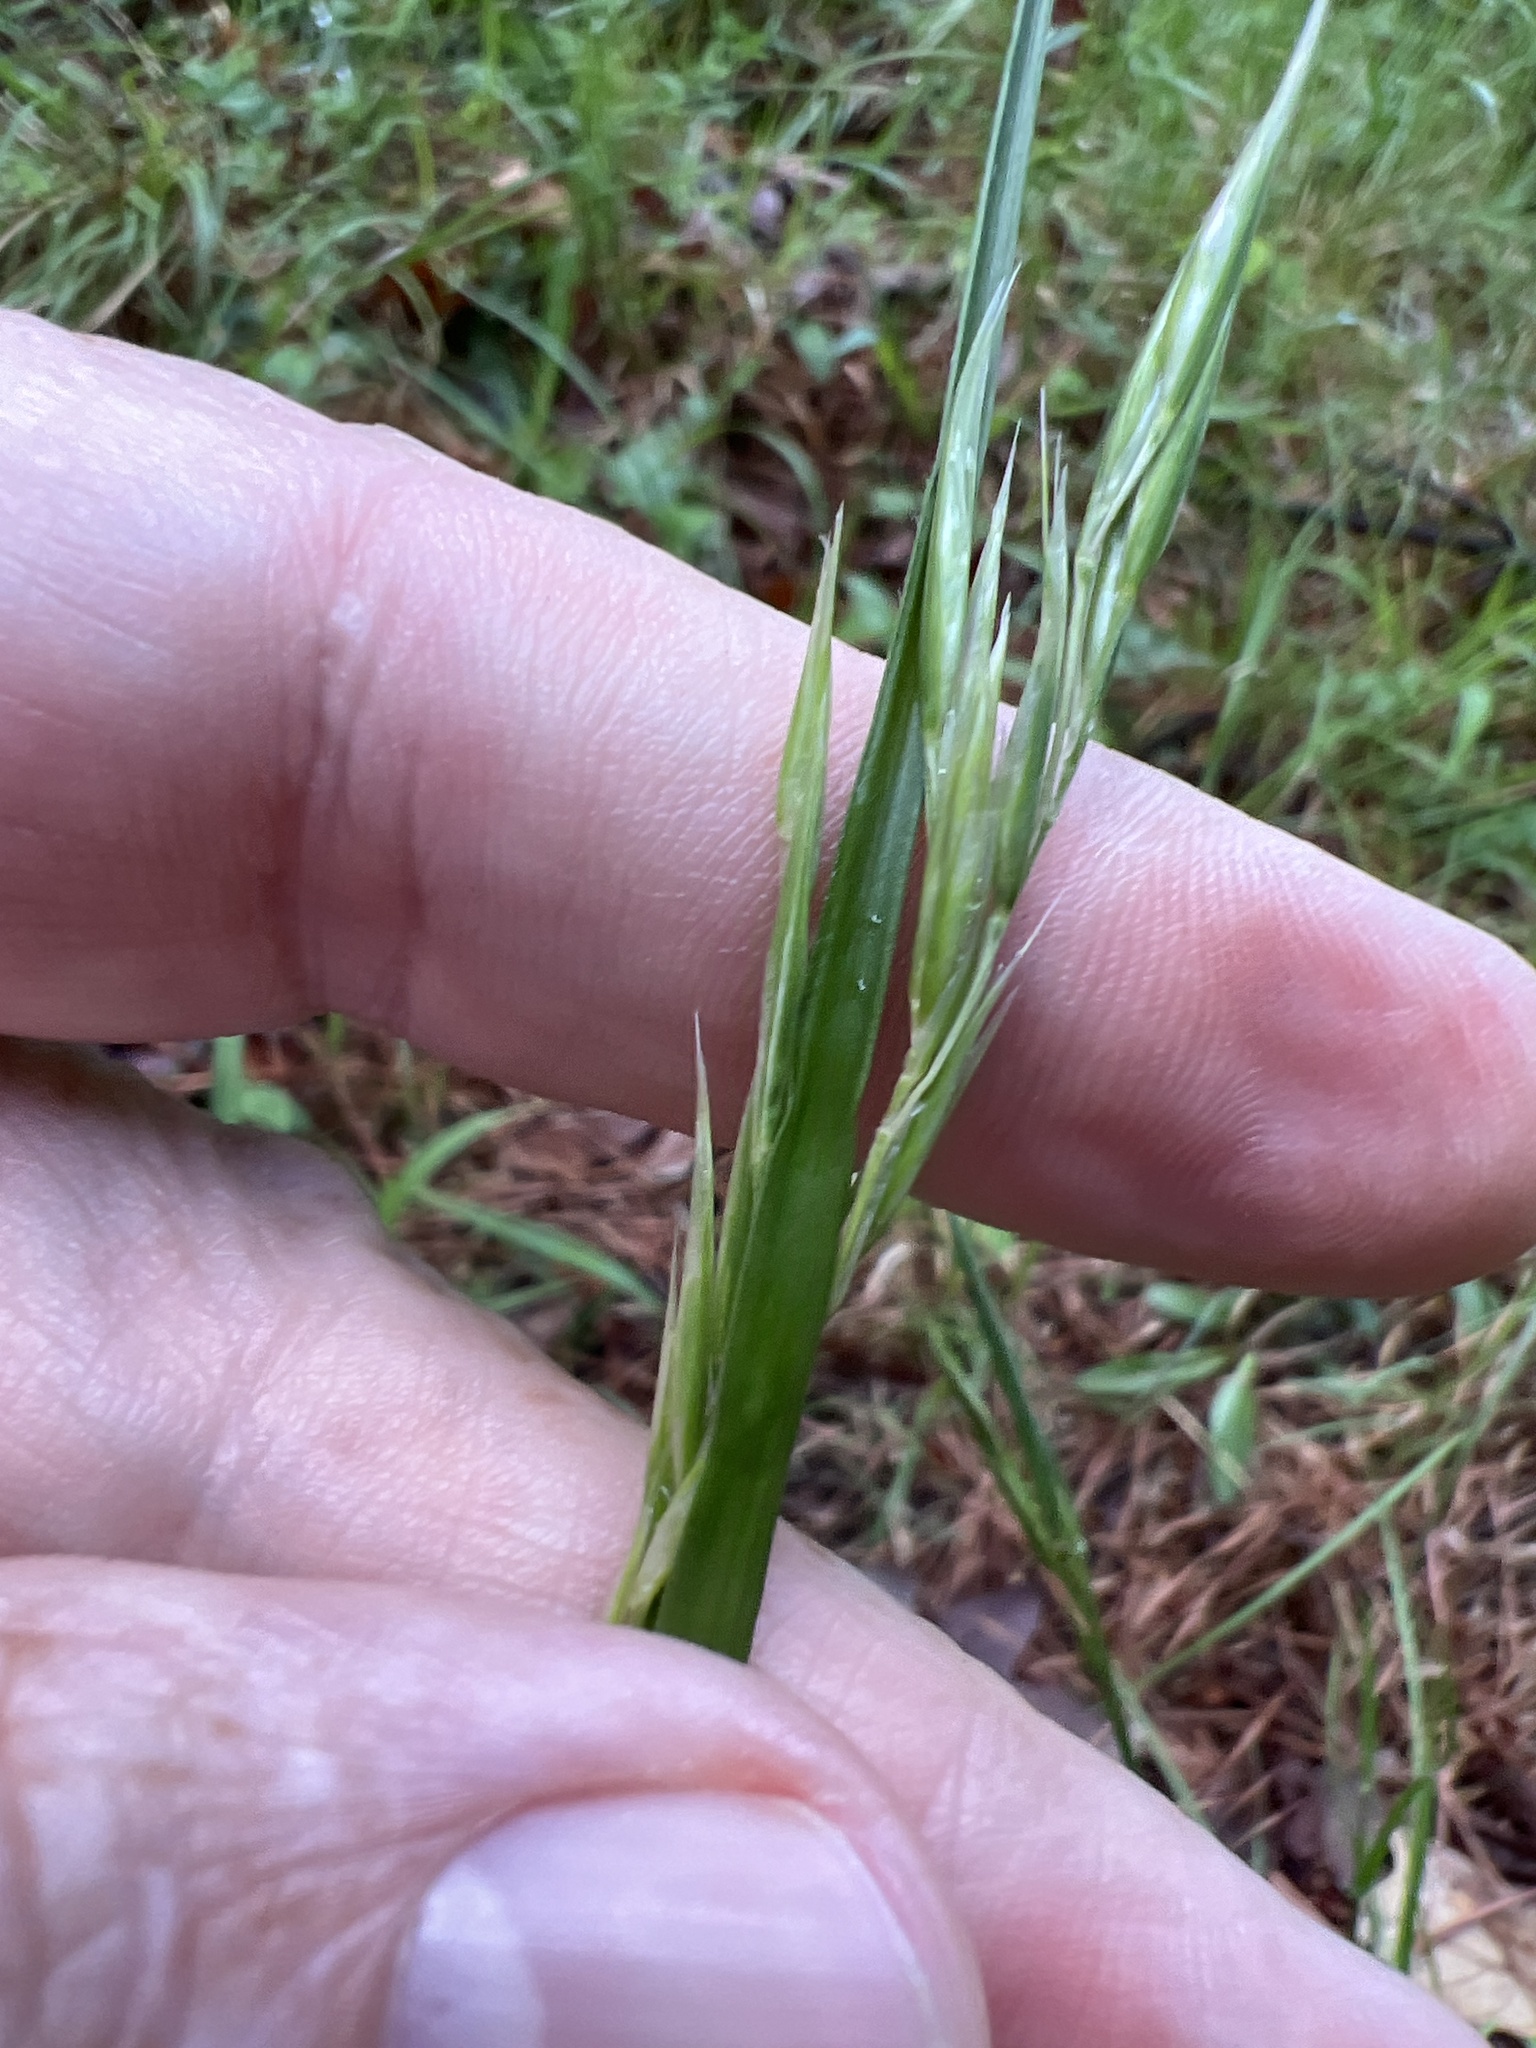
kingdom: Plantae
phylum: Tracheophyta
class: Liliopsida
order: Poales
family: Poaceae
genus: Danthonia
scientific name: Danthonia sericea
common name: Downy danthonia
